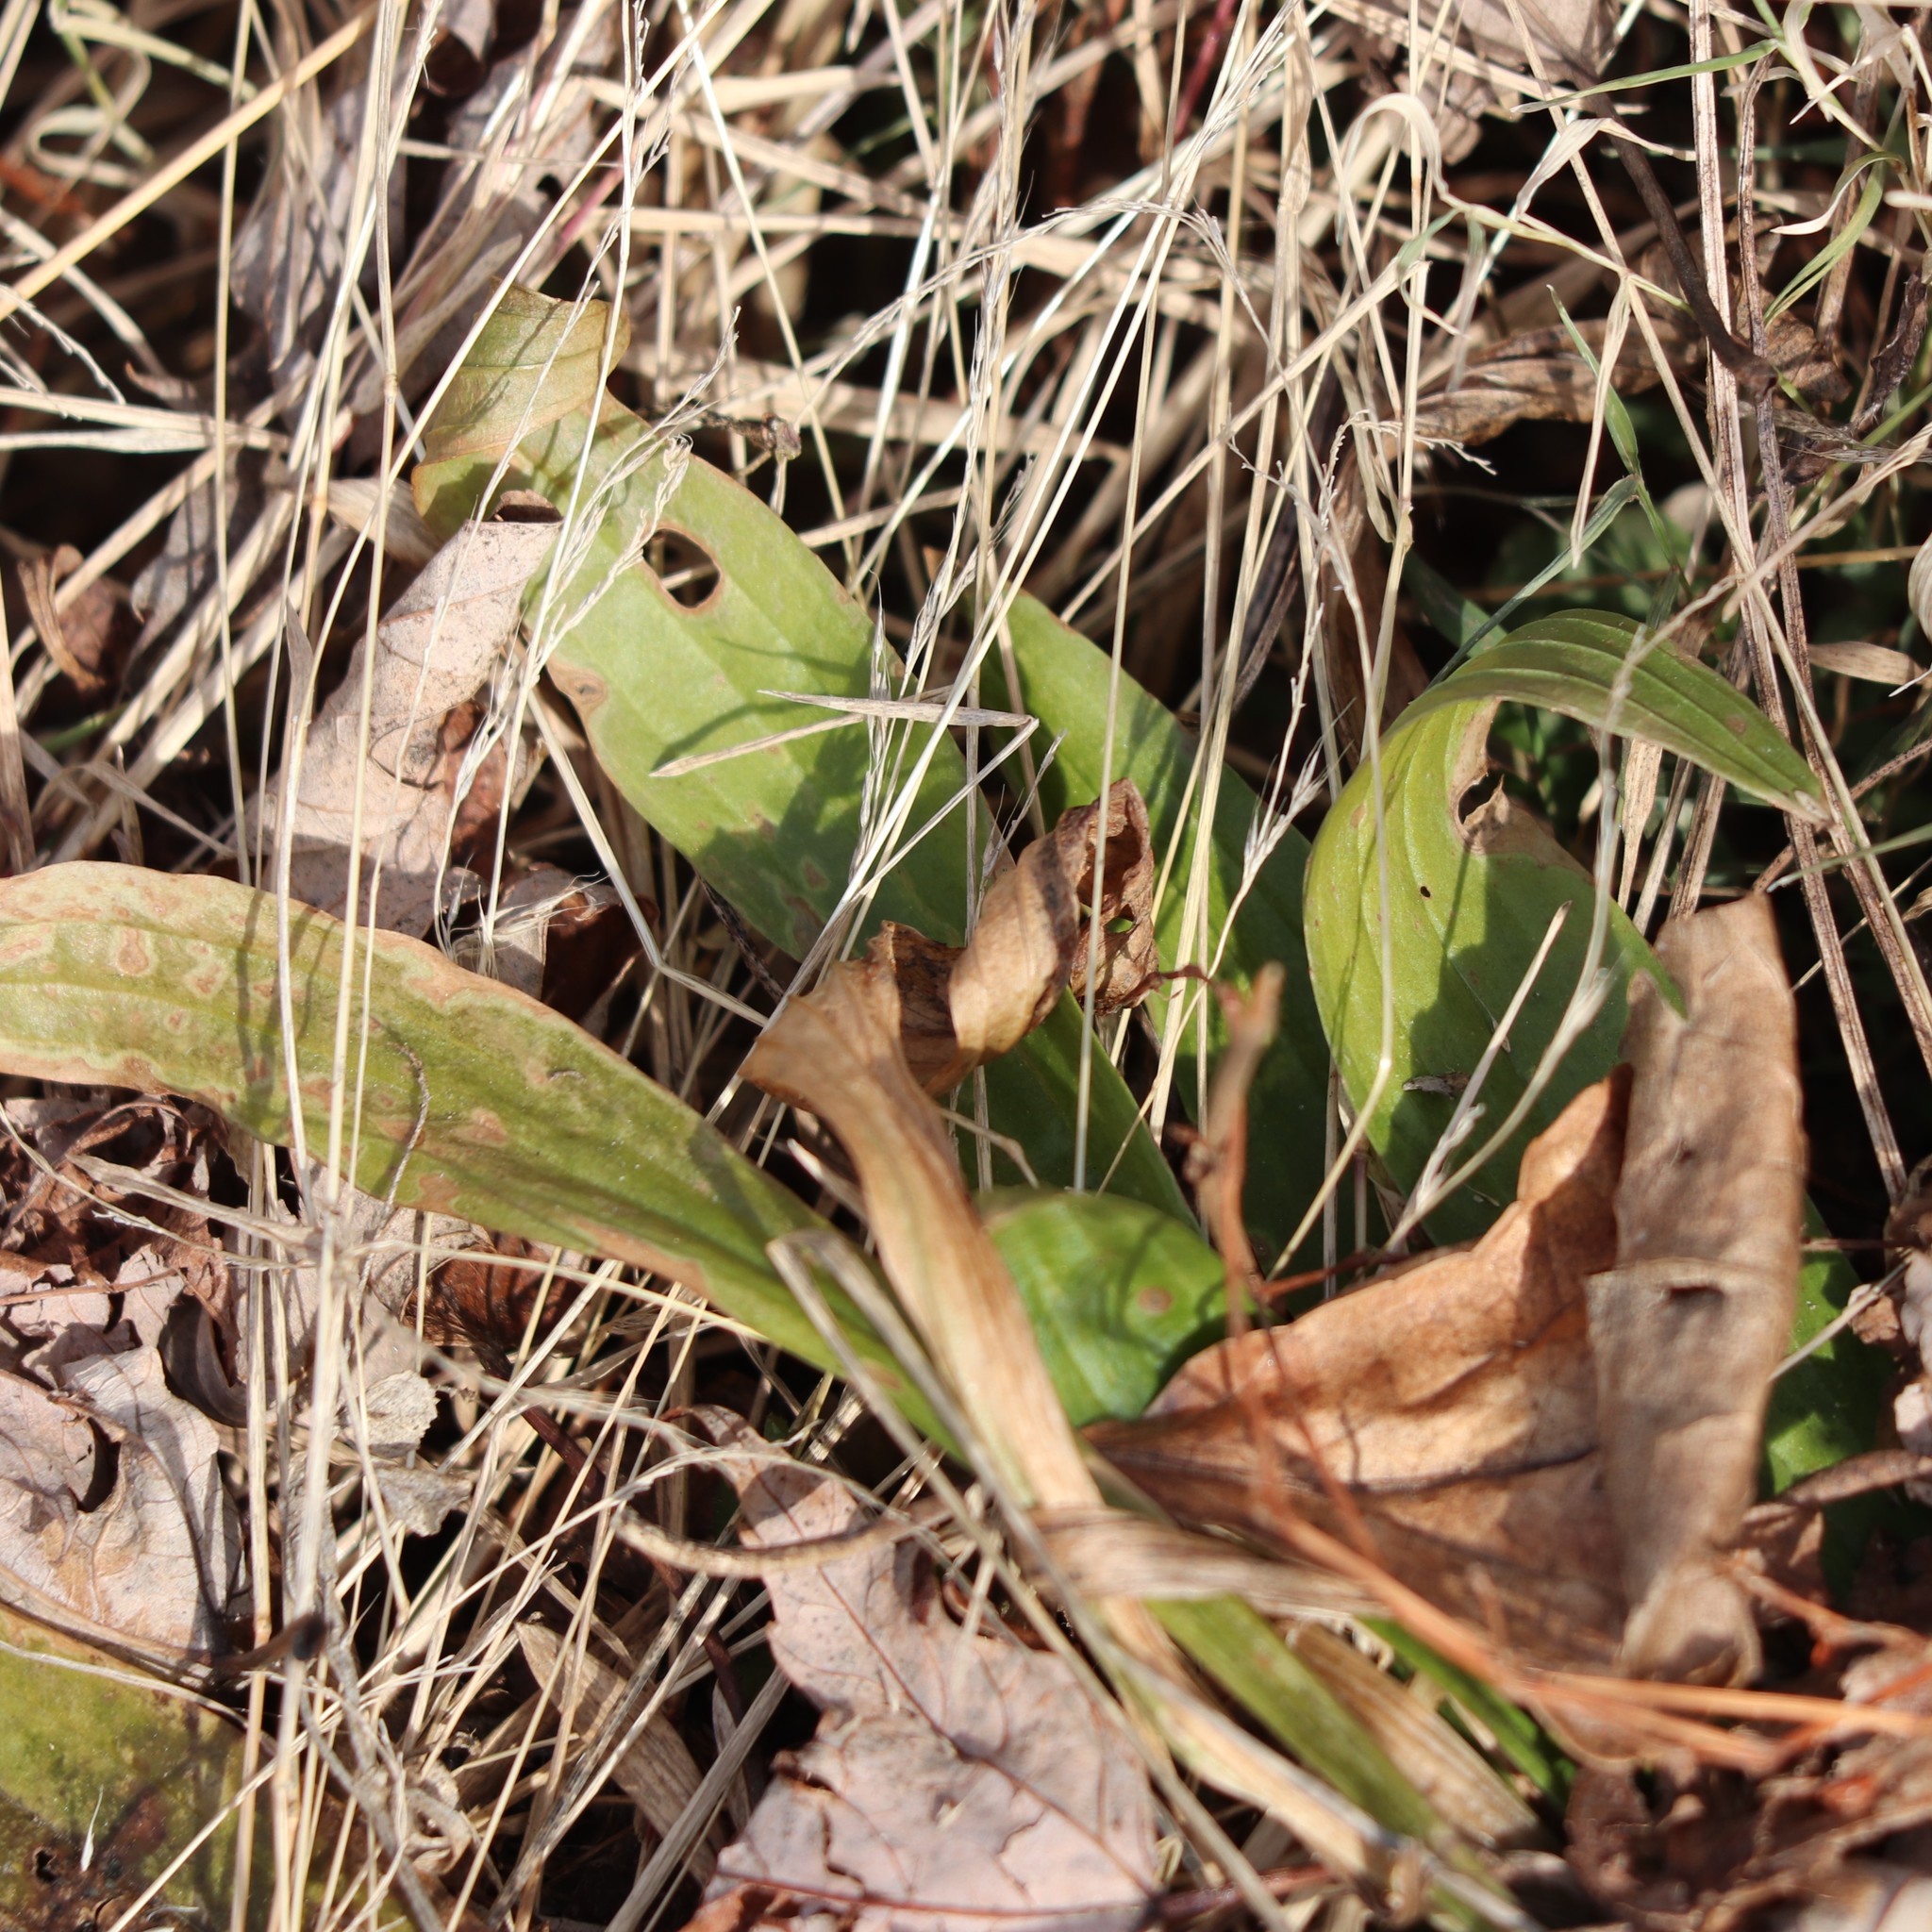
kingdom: Plantae
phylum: Tracheophyta
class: Magnoliopsida
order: Lamiales
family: Plantaginaceae
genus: Plantago
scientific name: Plantago lanceolata
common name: Ribwort plantain
